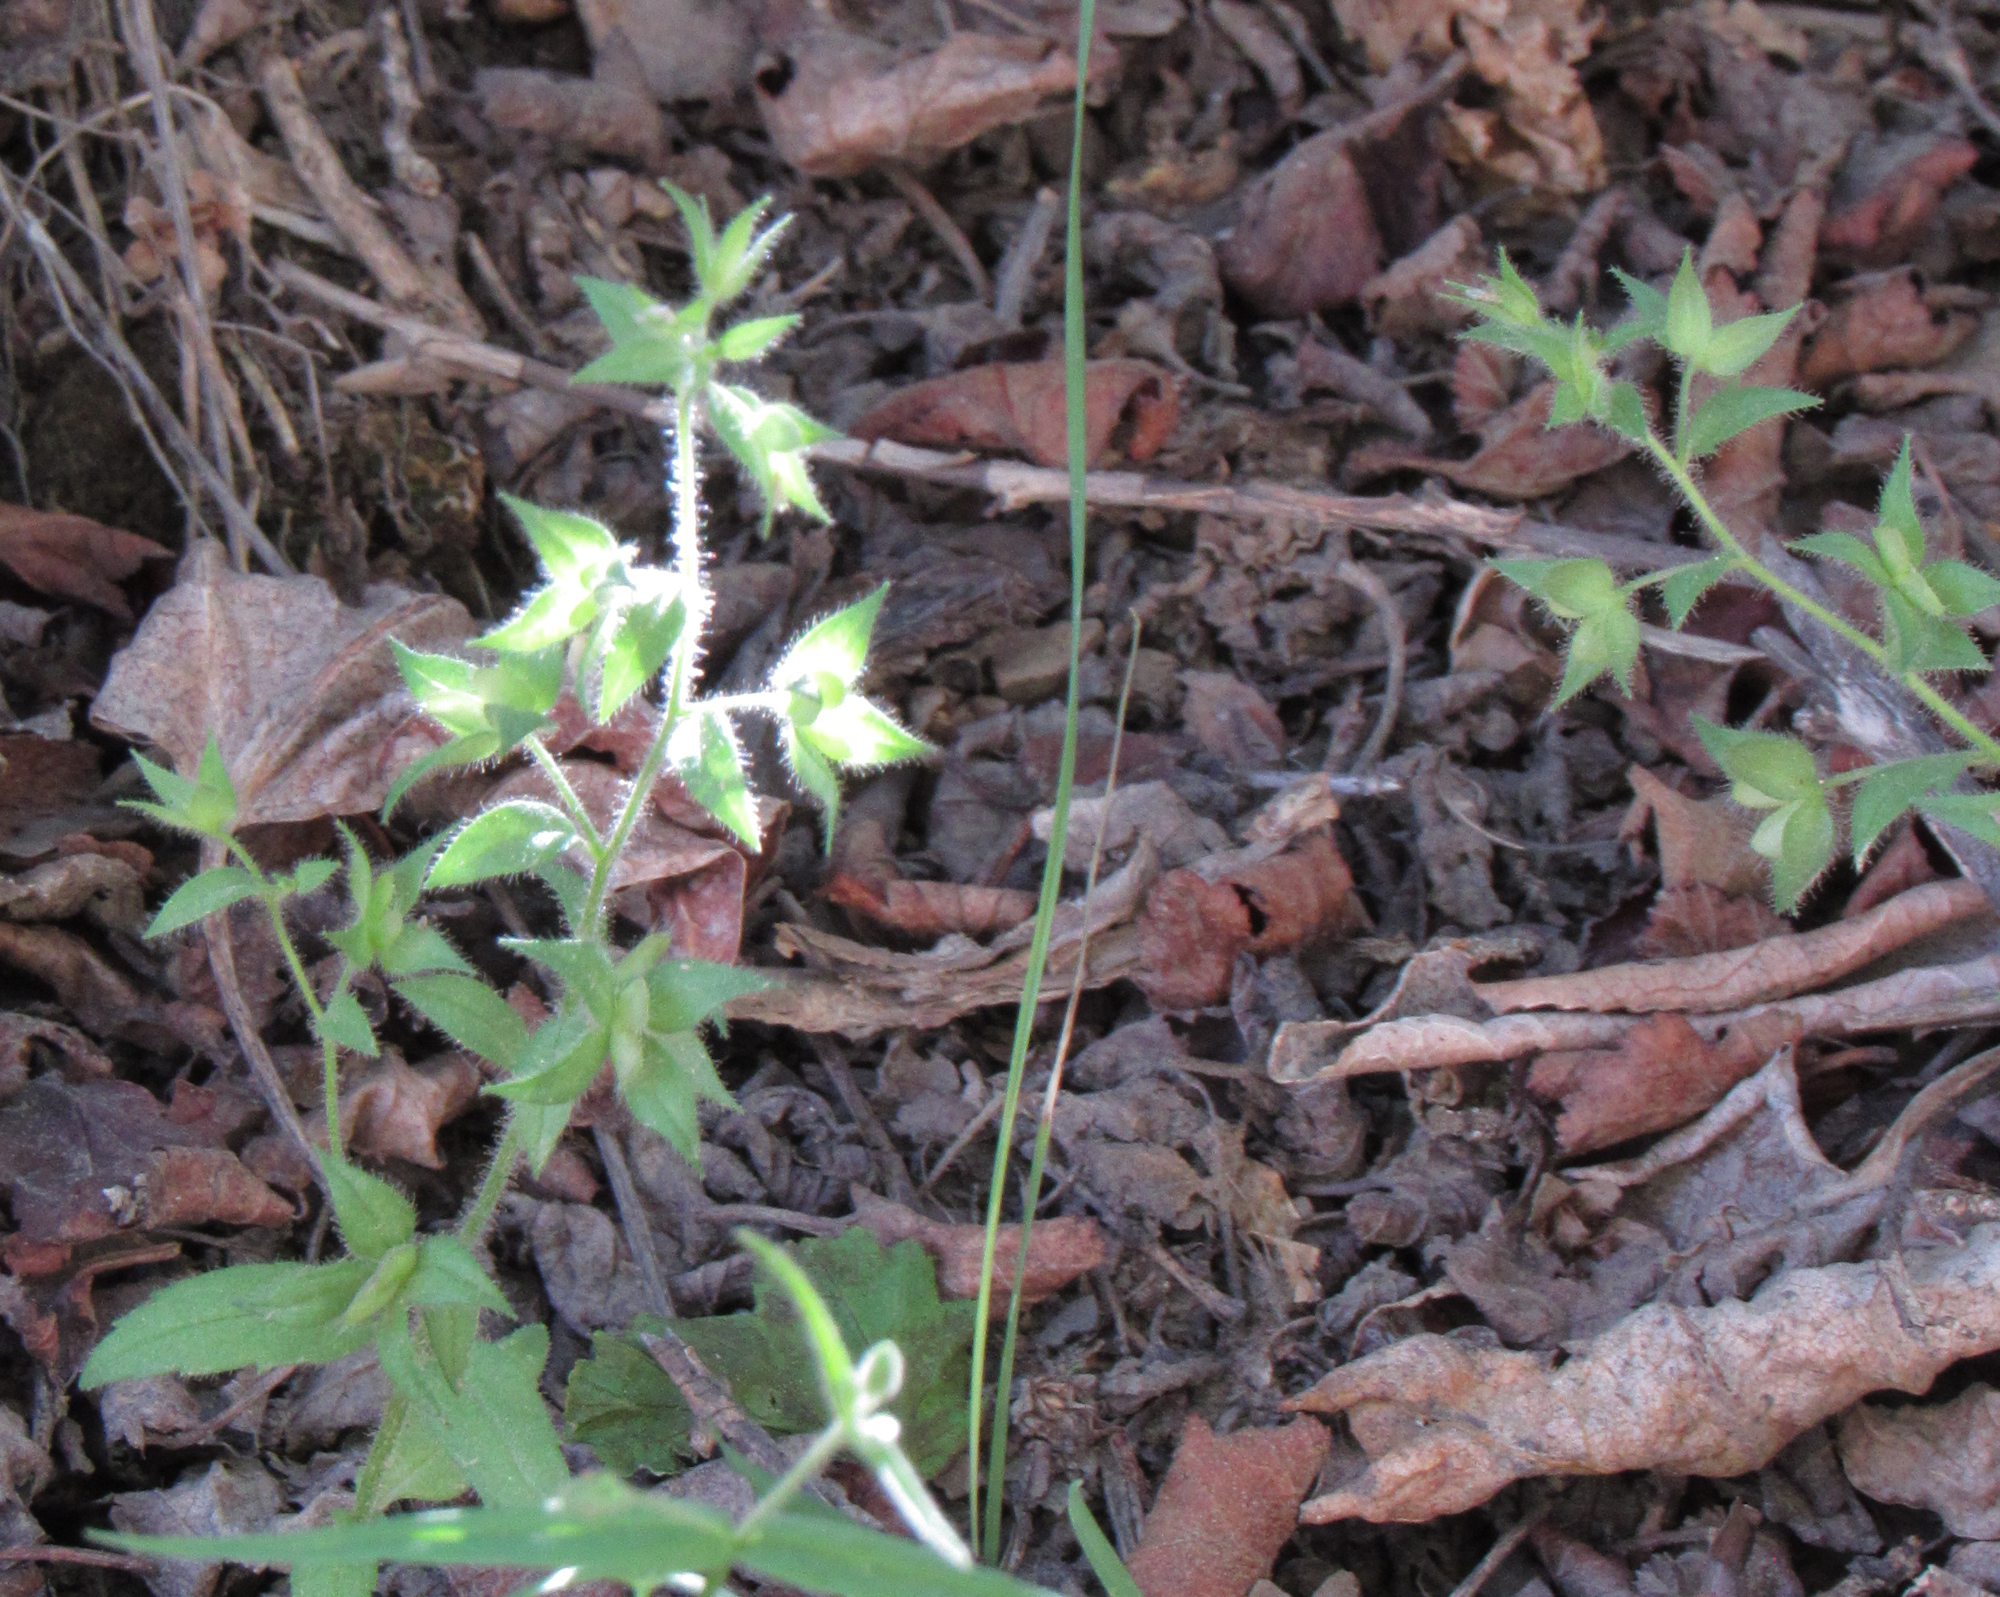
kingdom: Plantae
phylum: Tracheophyta
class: Magnoliopsida
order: Lamiales
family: Plantaginaceae
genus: Veronica
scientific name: Veronica biloba
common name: Twolobe speedwell
